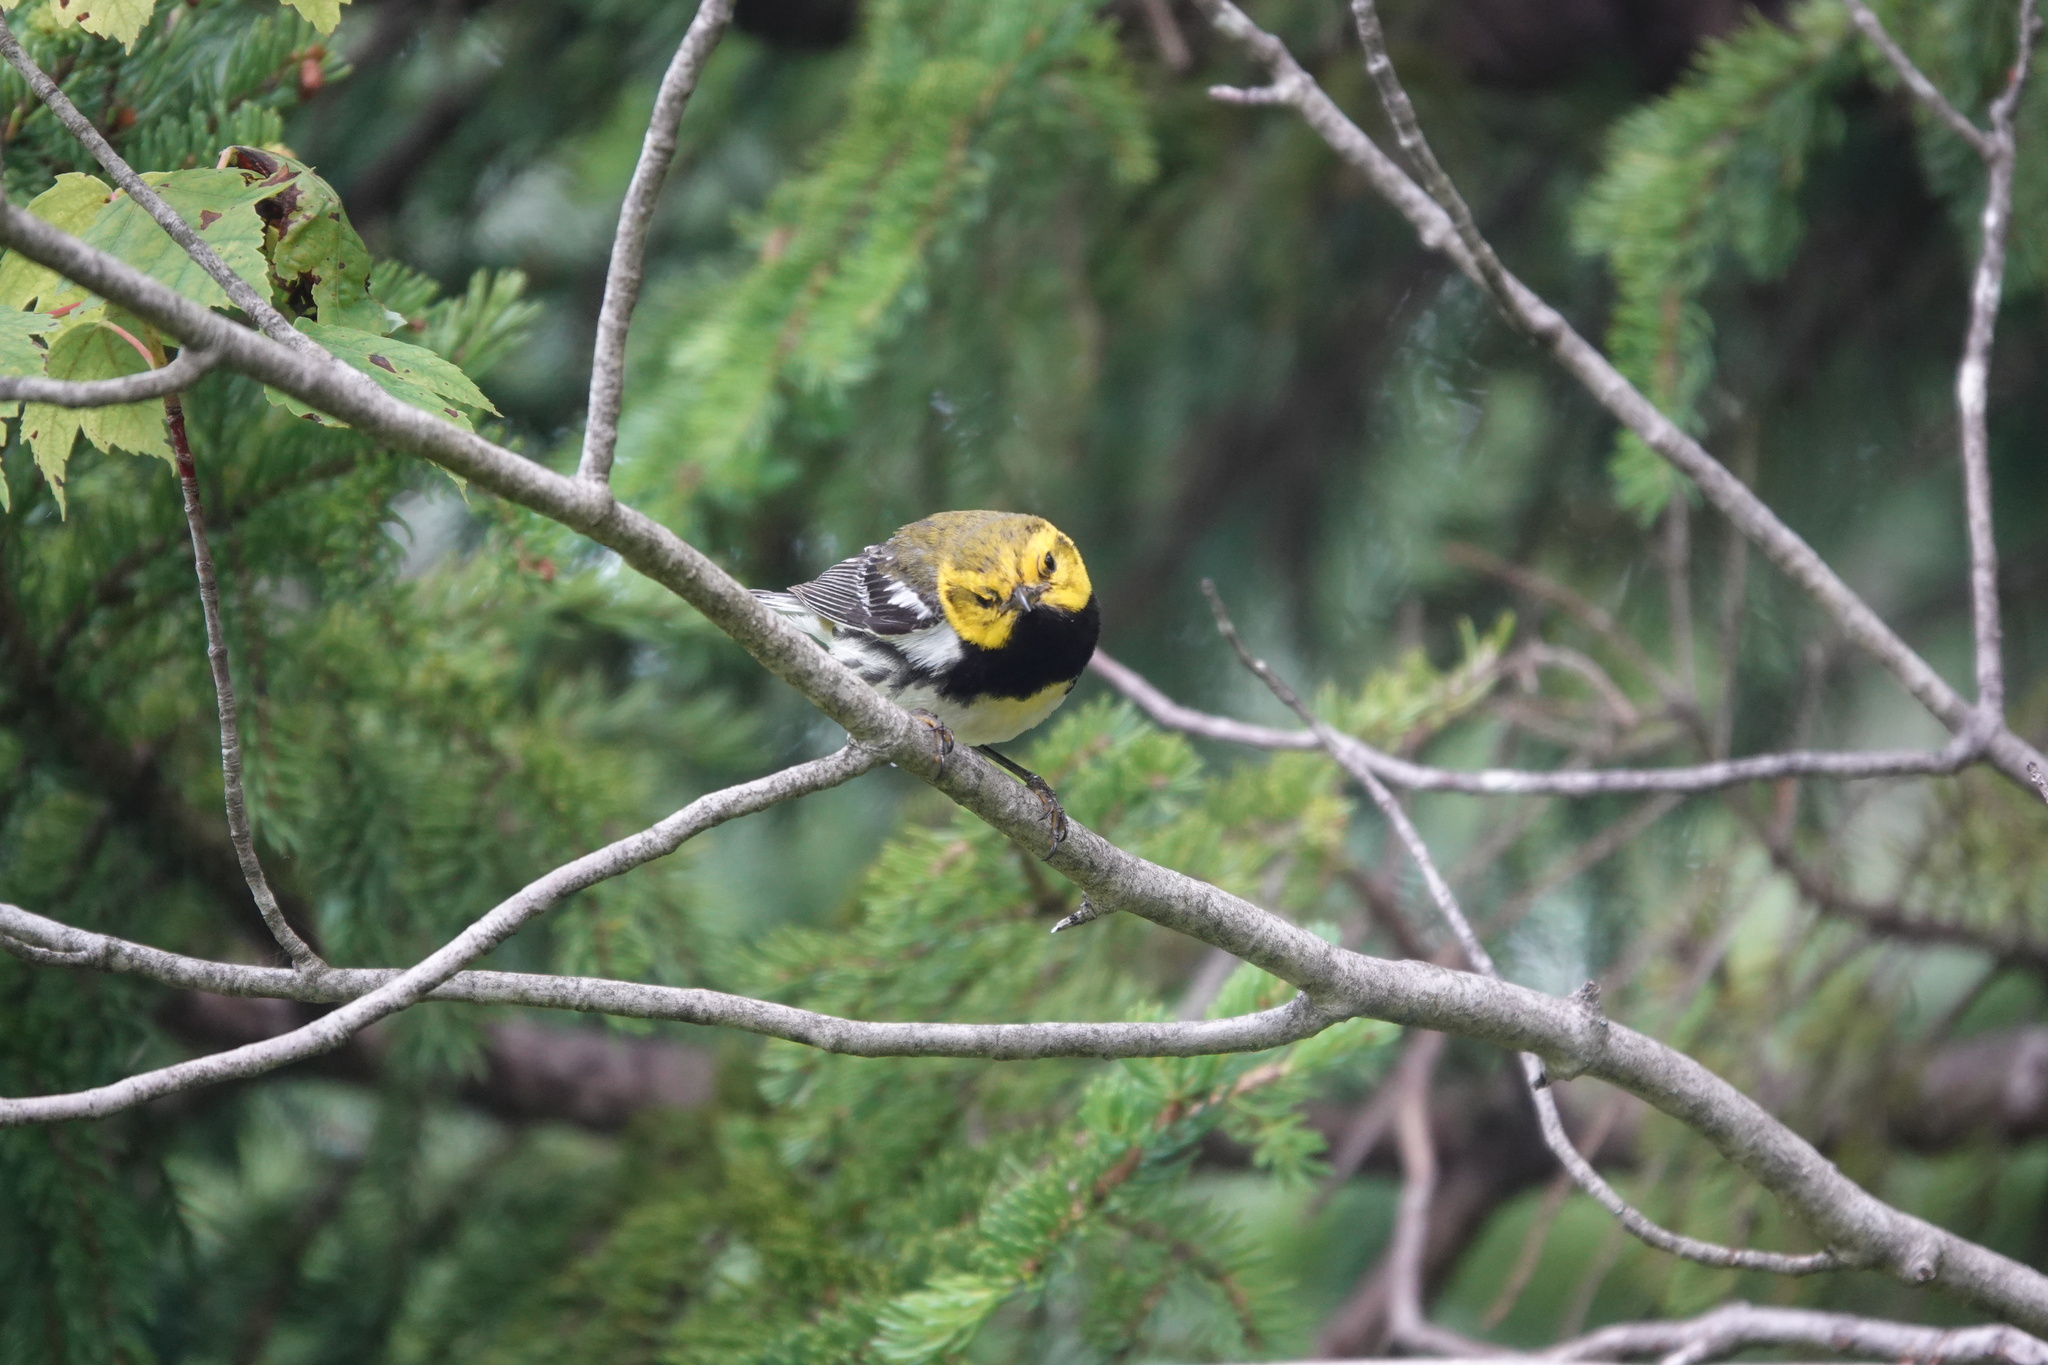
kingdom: Animalia
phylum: Chordata
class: Aves
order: Passeriformes
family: Parulidae
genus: Setophaga
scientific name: Setophaga virens
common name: Black-throated green warbler
